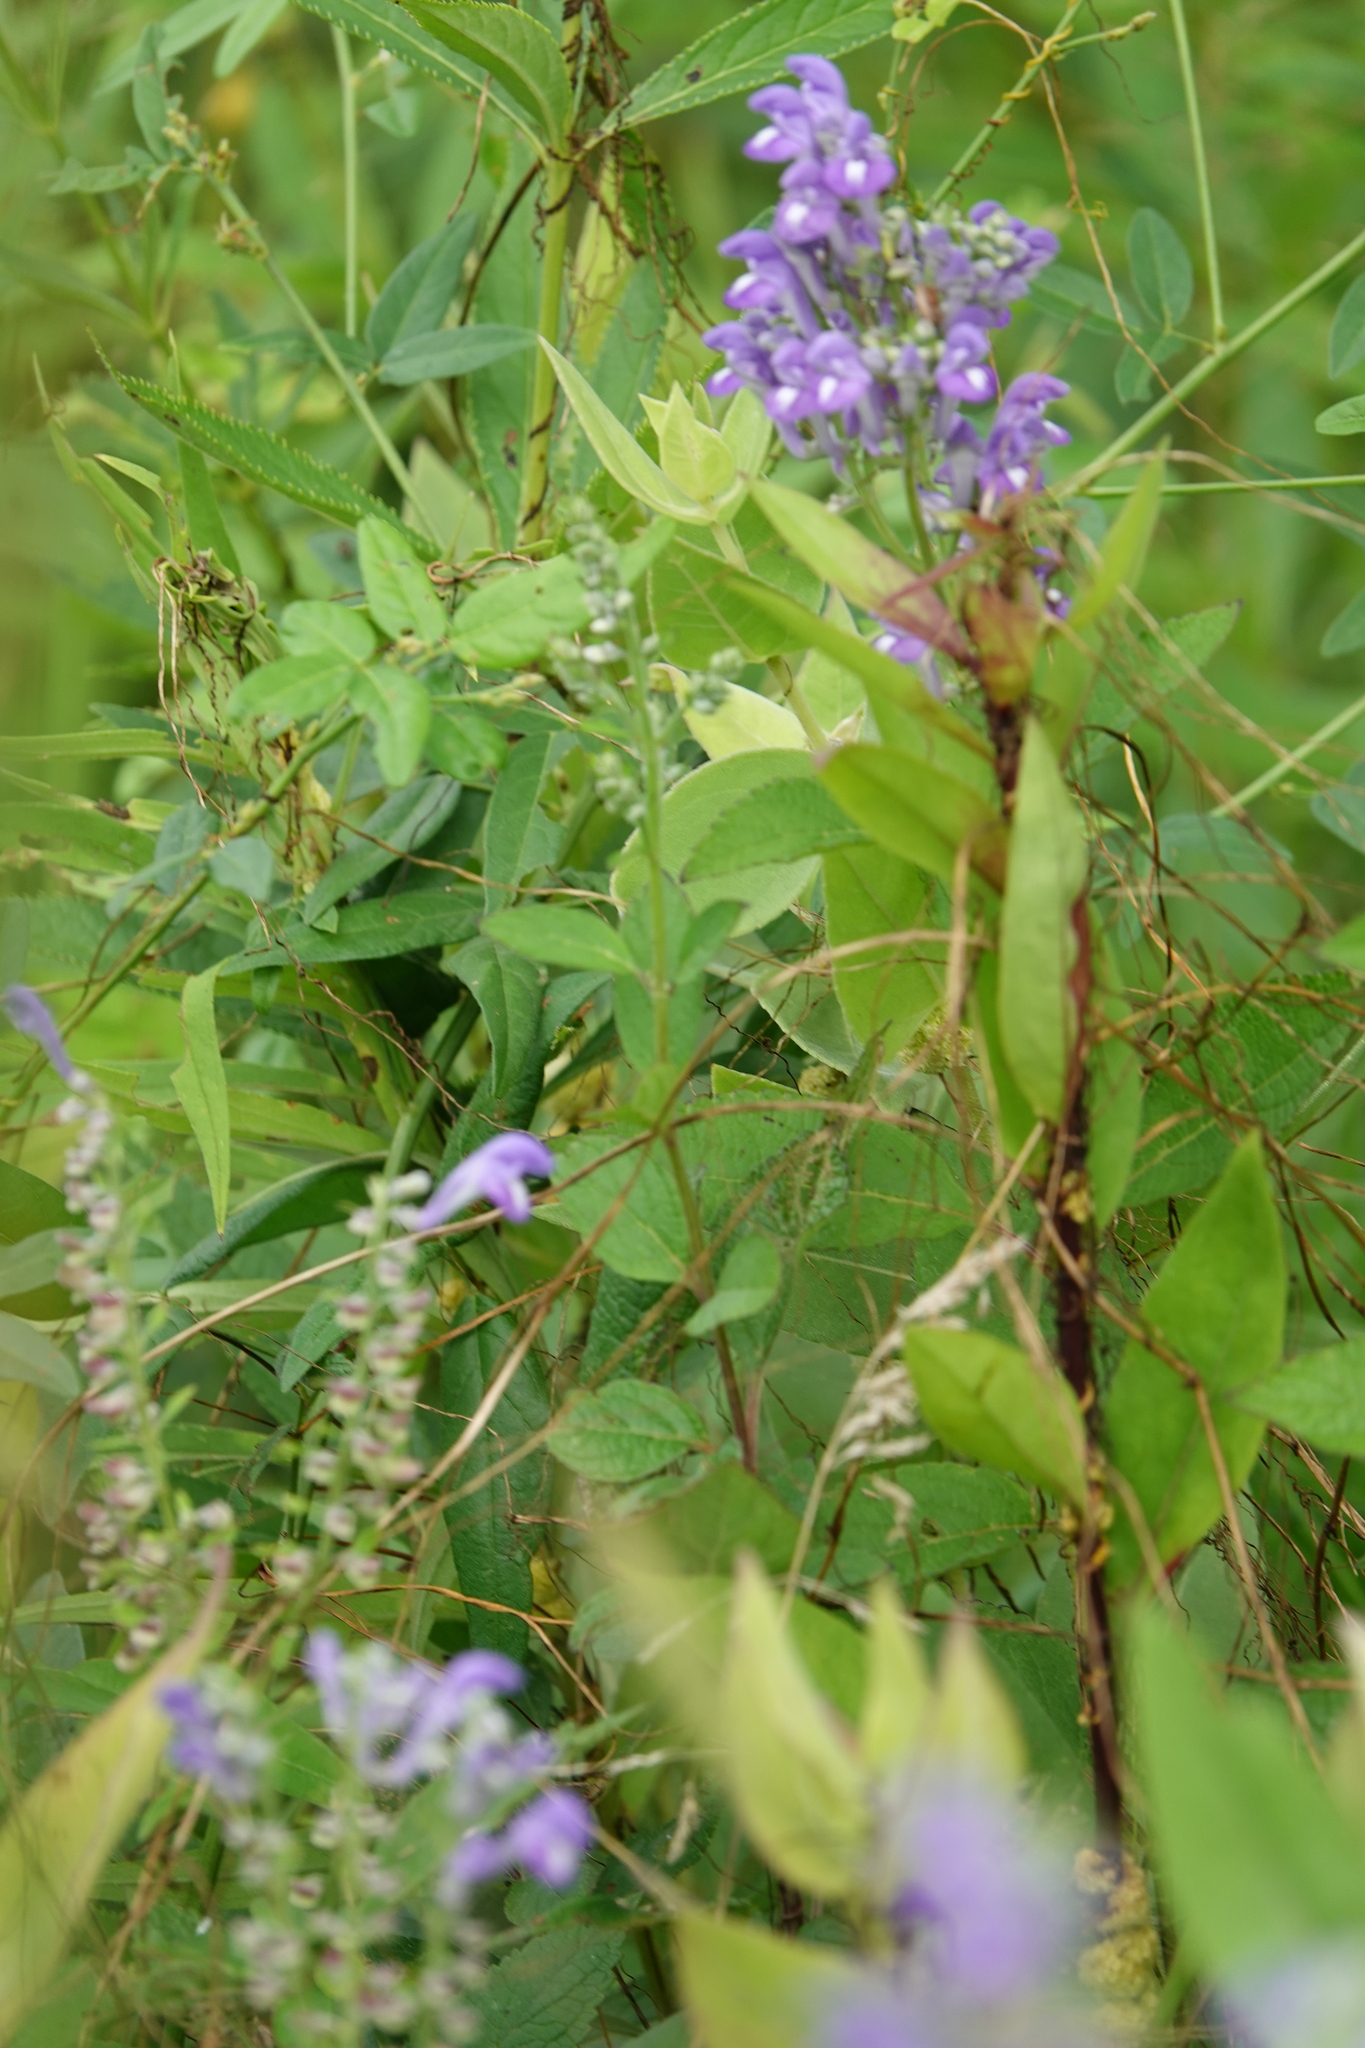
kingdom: Plantae
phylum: Tracheophyta
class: Magnoliopsida
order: Lamiales
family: Lamiaceae
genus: Scutellaria
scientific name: Scutellaria incana
